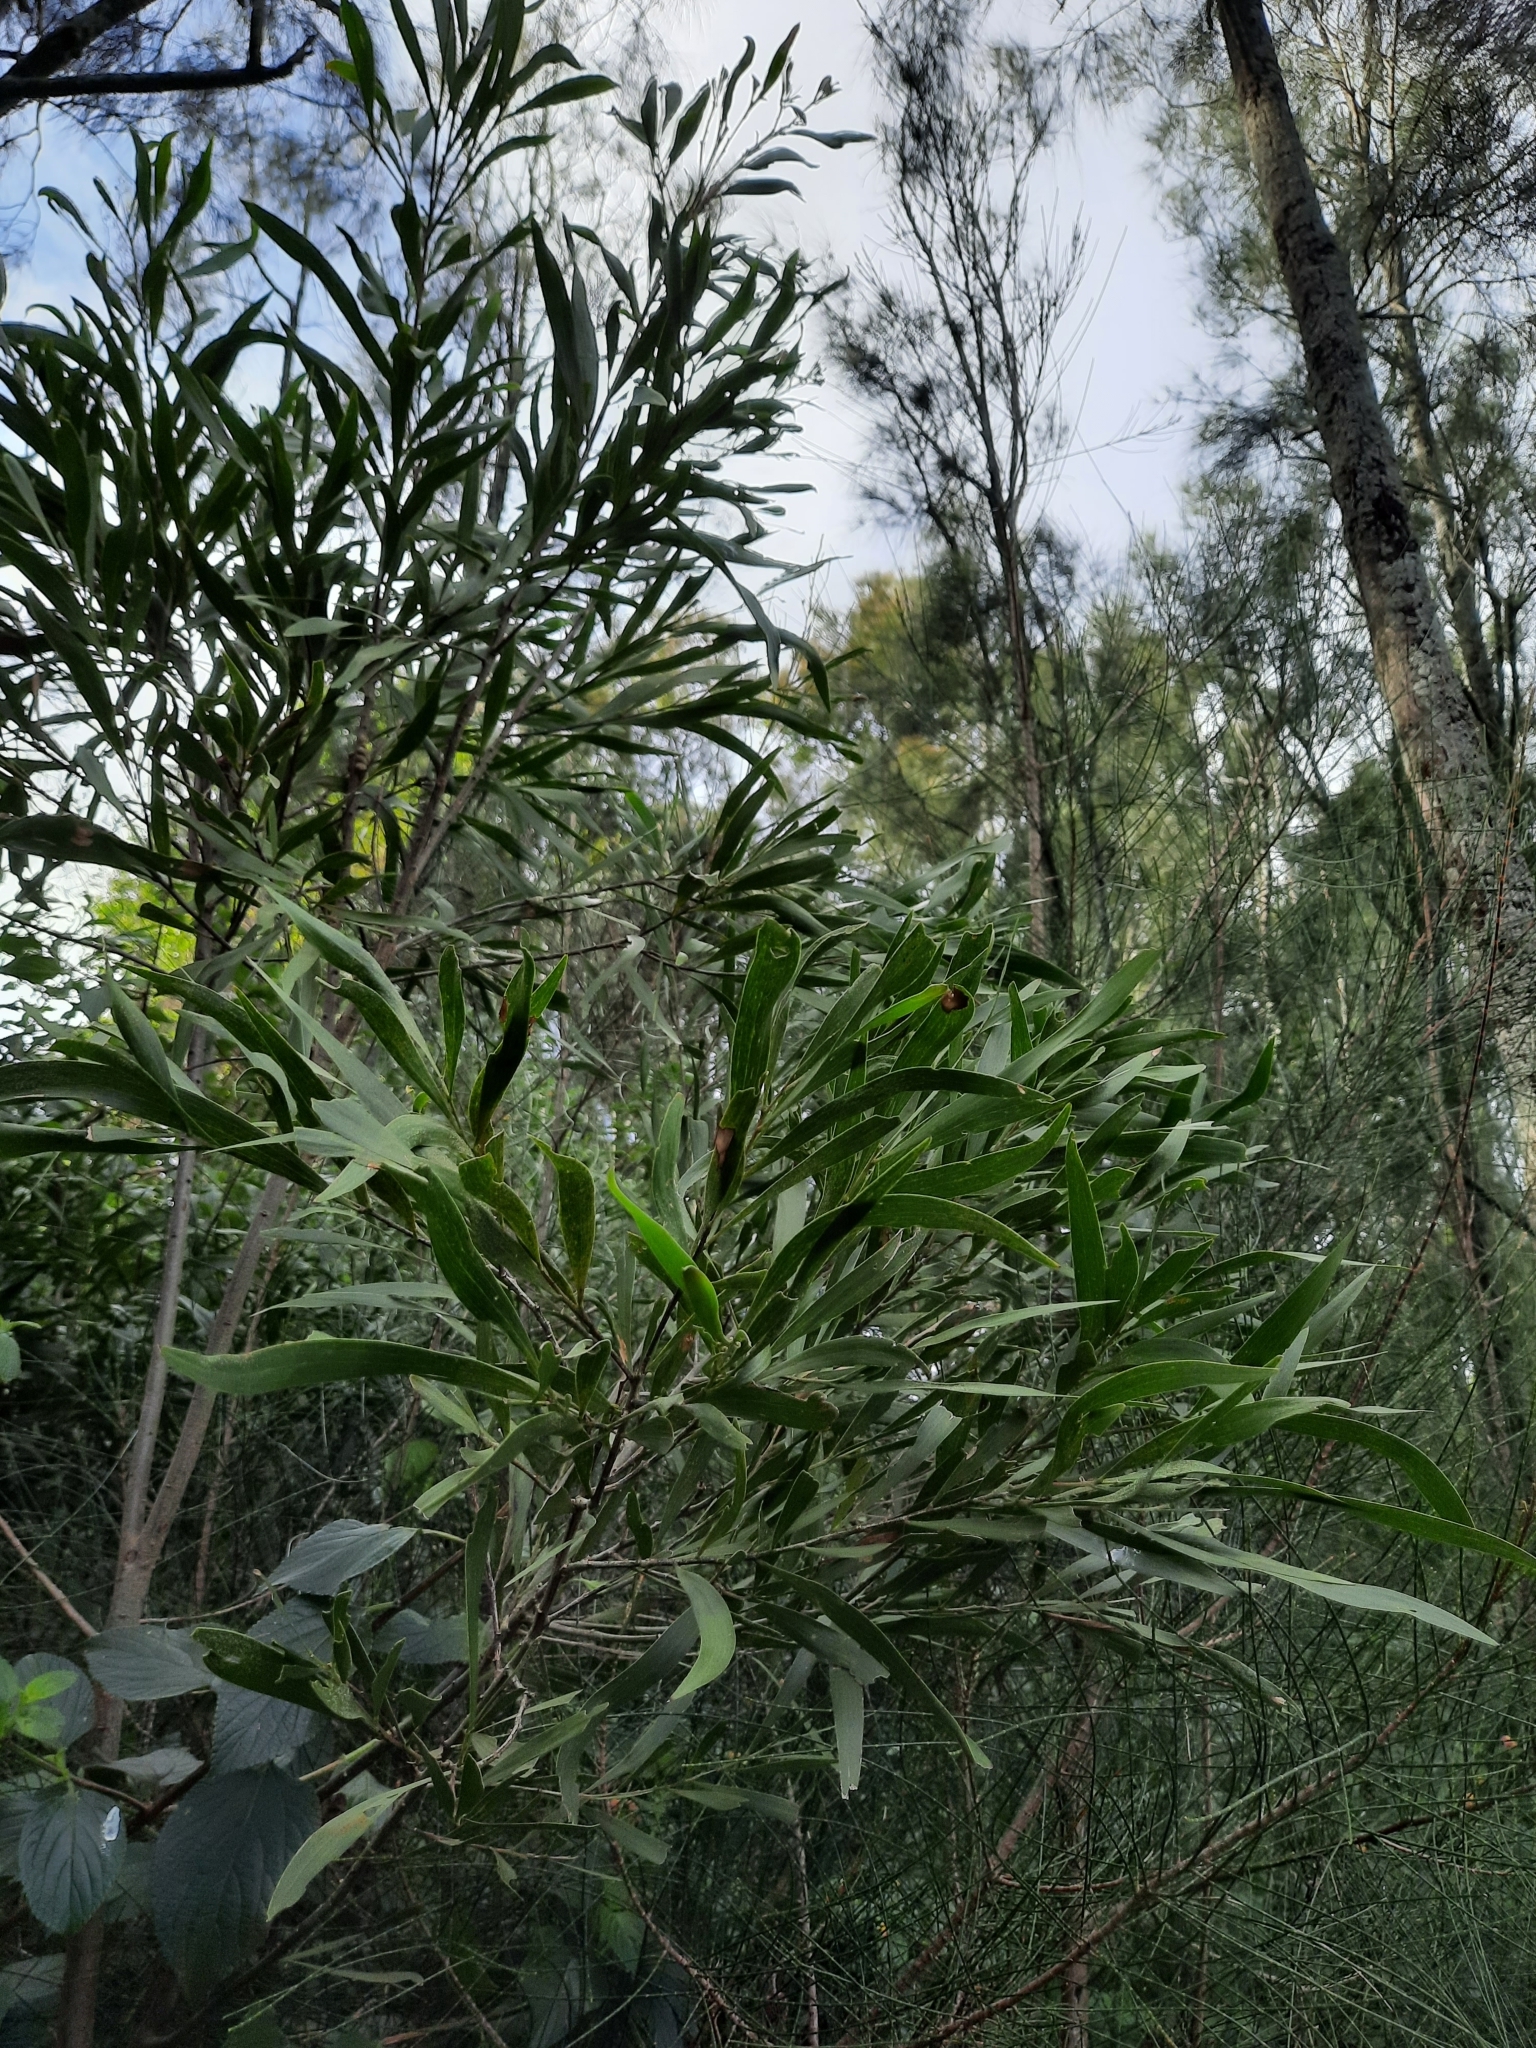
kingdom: Plantae
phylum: Tracheophyta
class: Magnoliopsida
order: Fabales
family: Fabaceae
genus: Acacia
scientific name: Acacia maidenii
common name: Maiden's wattle
